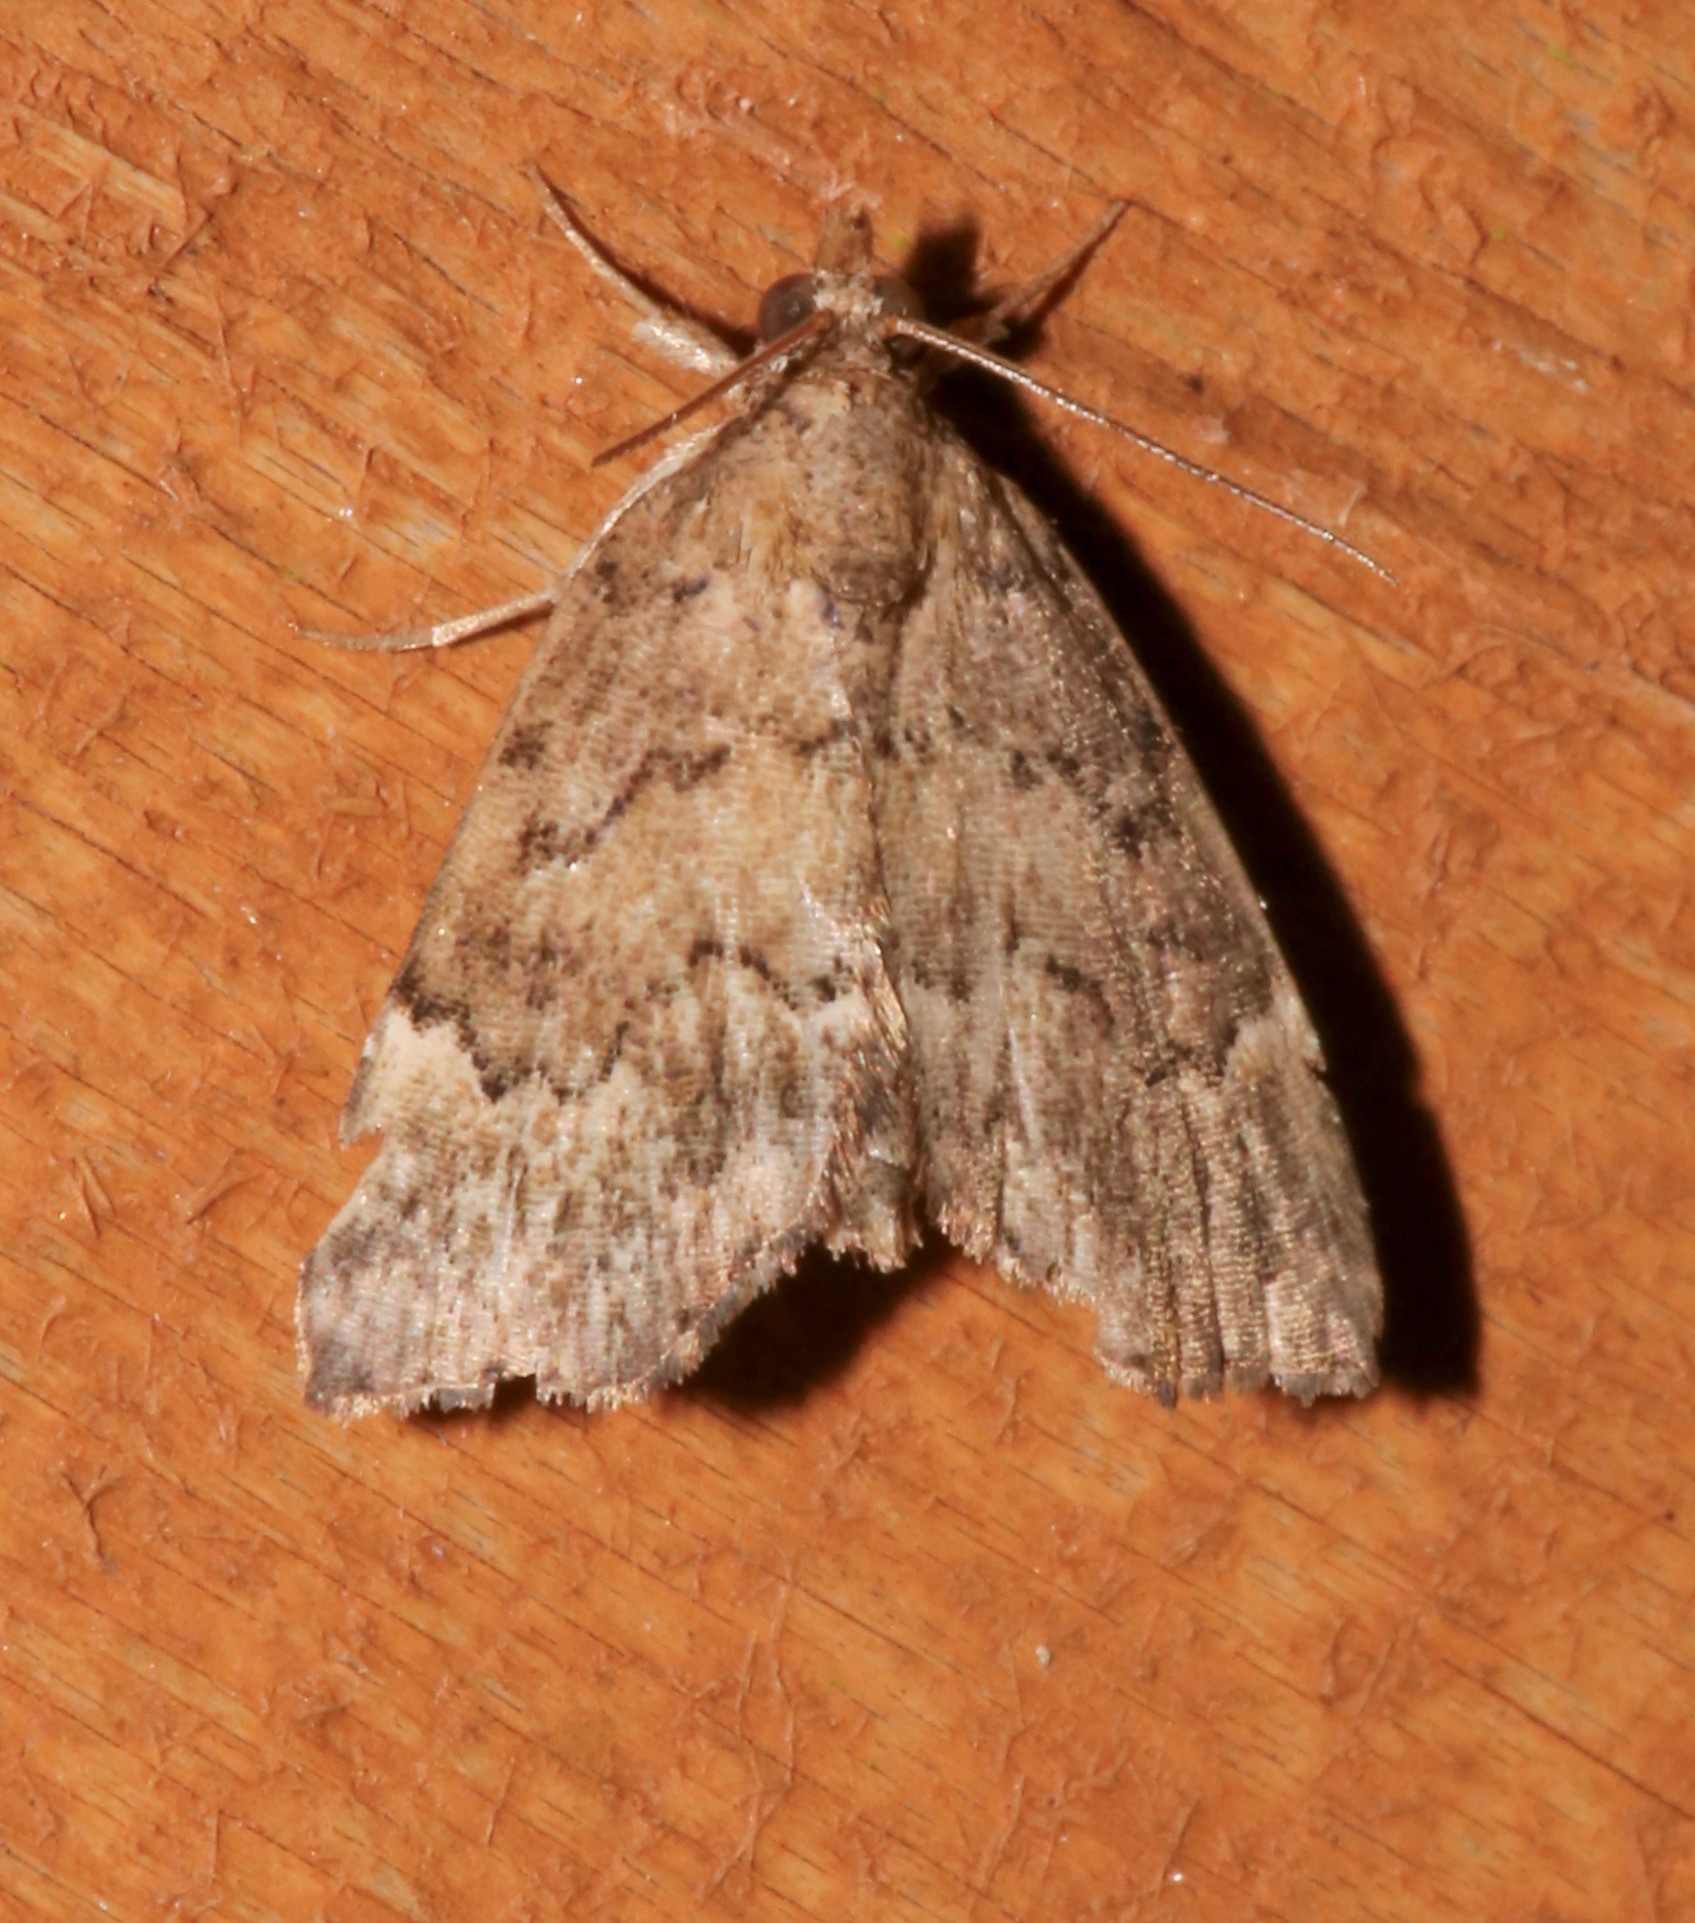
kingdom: Animalia
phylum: Arthropoda
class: Insecta
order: Lepidoptera
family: Erebidae
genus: Cutina
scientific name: Cutina aluticolor
